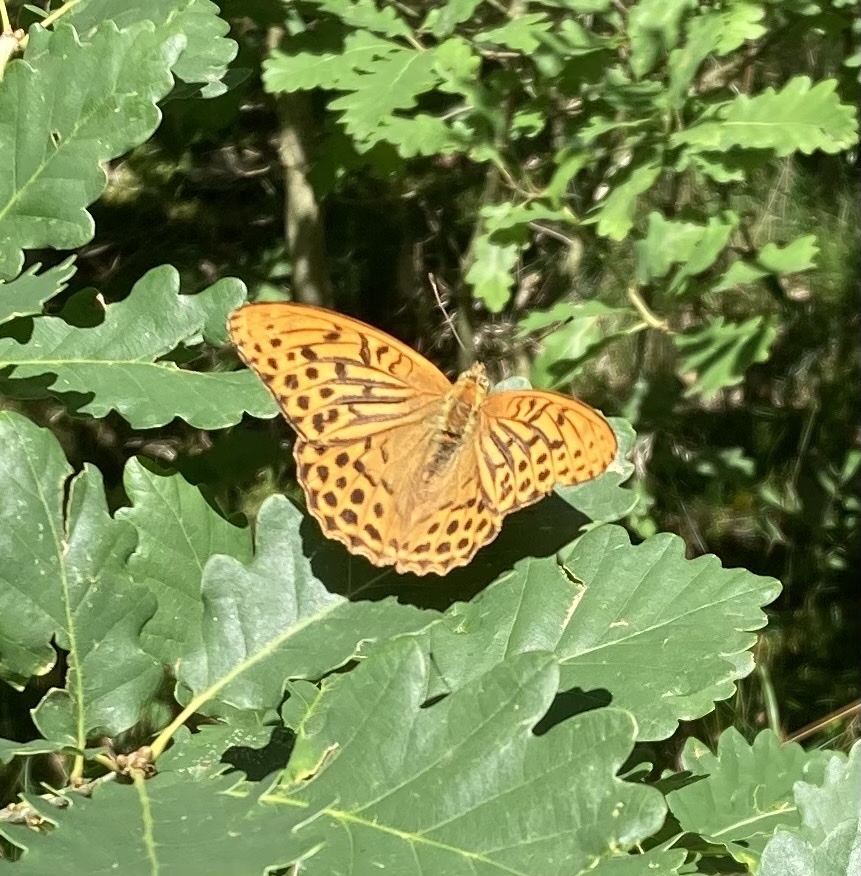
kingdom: Animalia
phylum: Arthropoda
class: Insecta
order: Lepidoptera
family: Nymphalidae
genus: Argynnis
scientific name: Argynnis paphia
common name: Silver-washed fritillary
